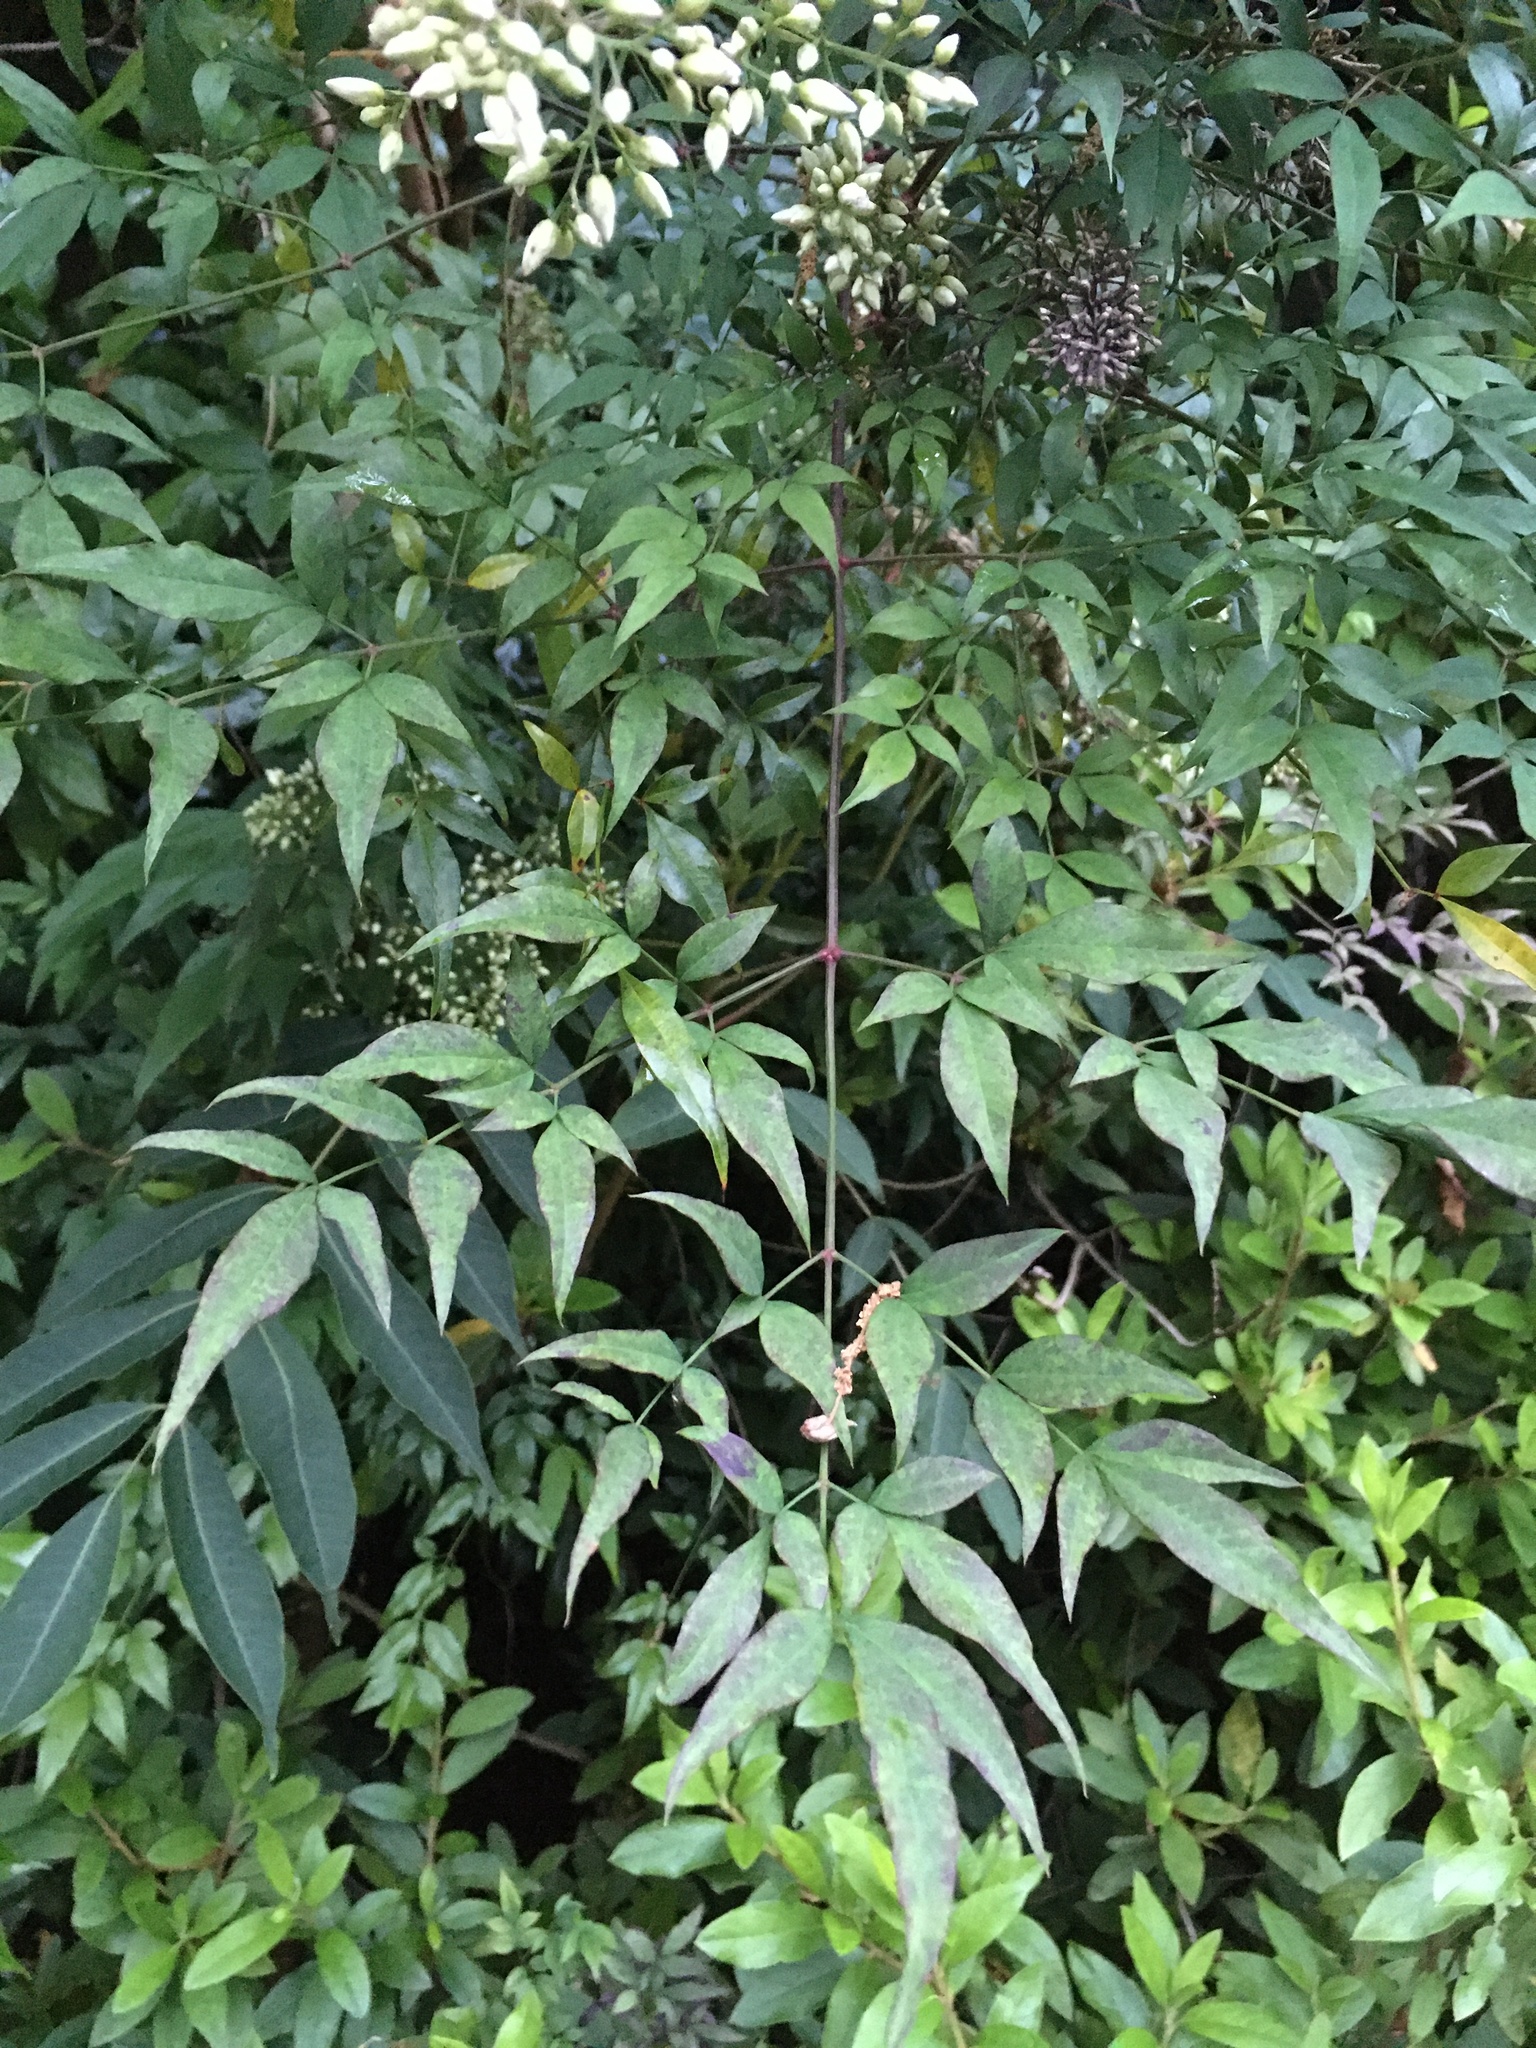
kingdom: Plantae
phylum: Tracheophyta
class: Magnoliopsida
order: Ranunculales
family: Berberidaceae
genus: Nandina
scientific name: Nandina domestica
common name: Sacred bamboo
